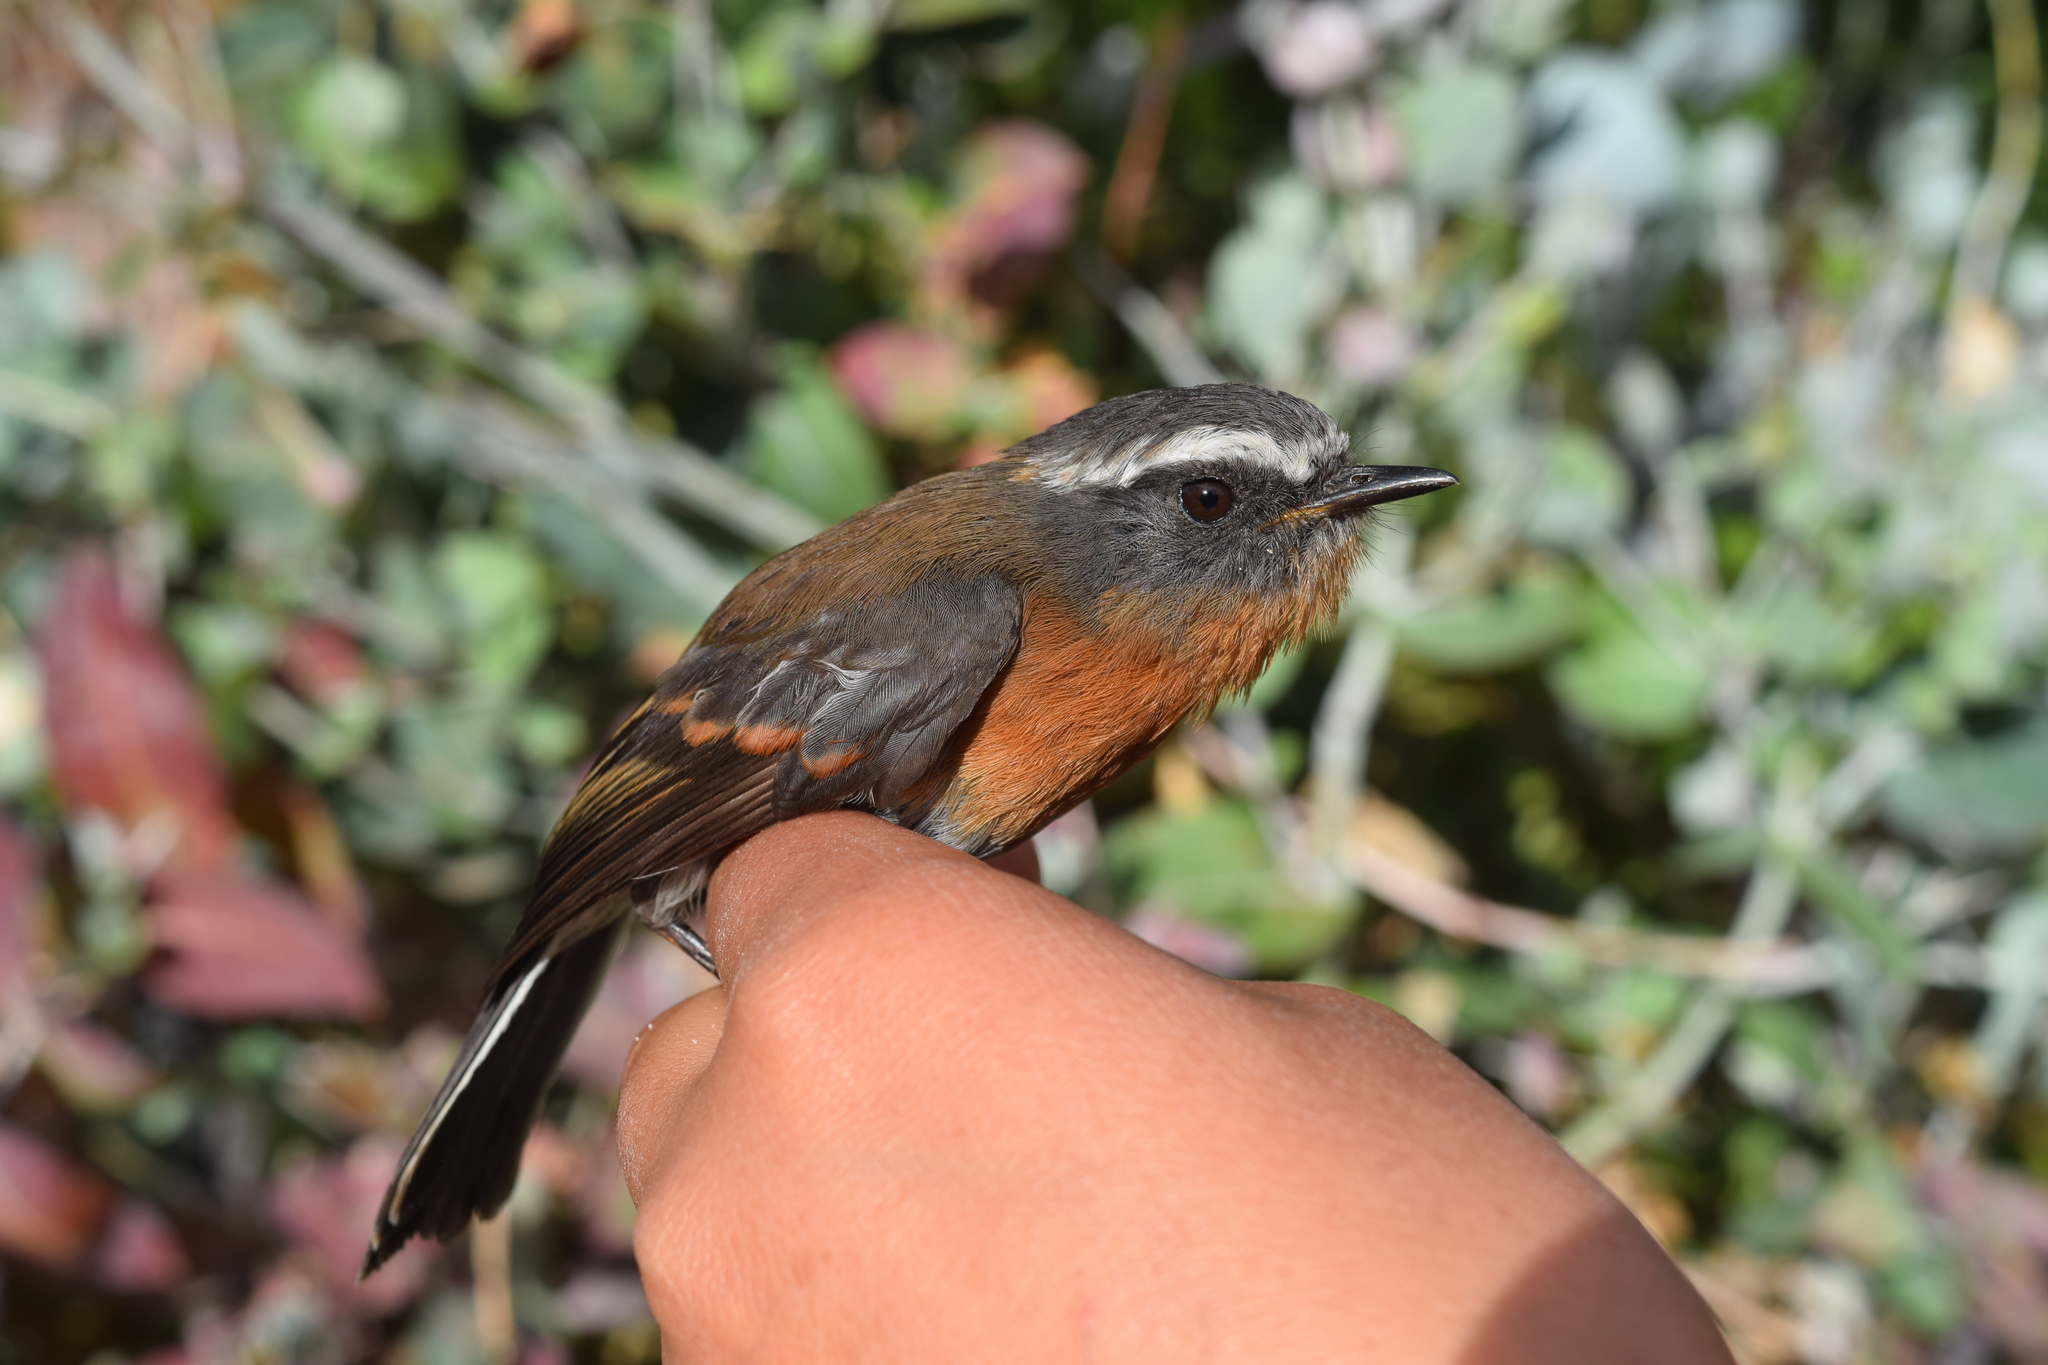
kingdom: Animalia
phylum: Chordata
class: Aves
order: Passeriformes
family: Tyrannidae
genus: Ochthoeca
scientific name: Ochthoeca rufipectoralis
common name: Rufous-breasted chat-tyrant
